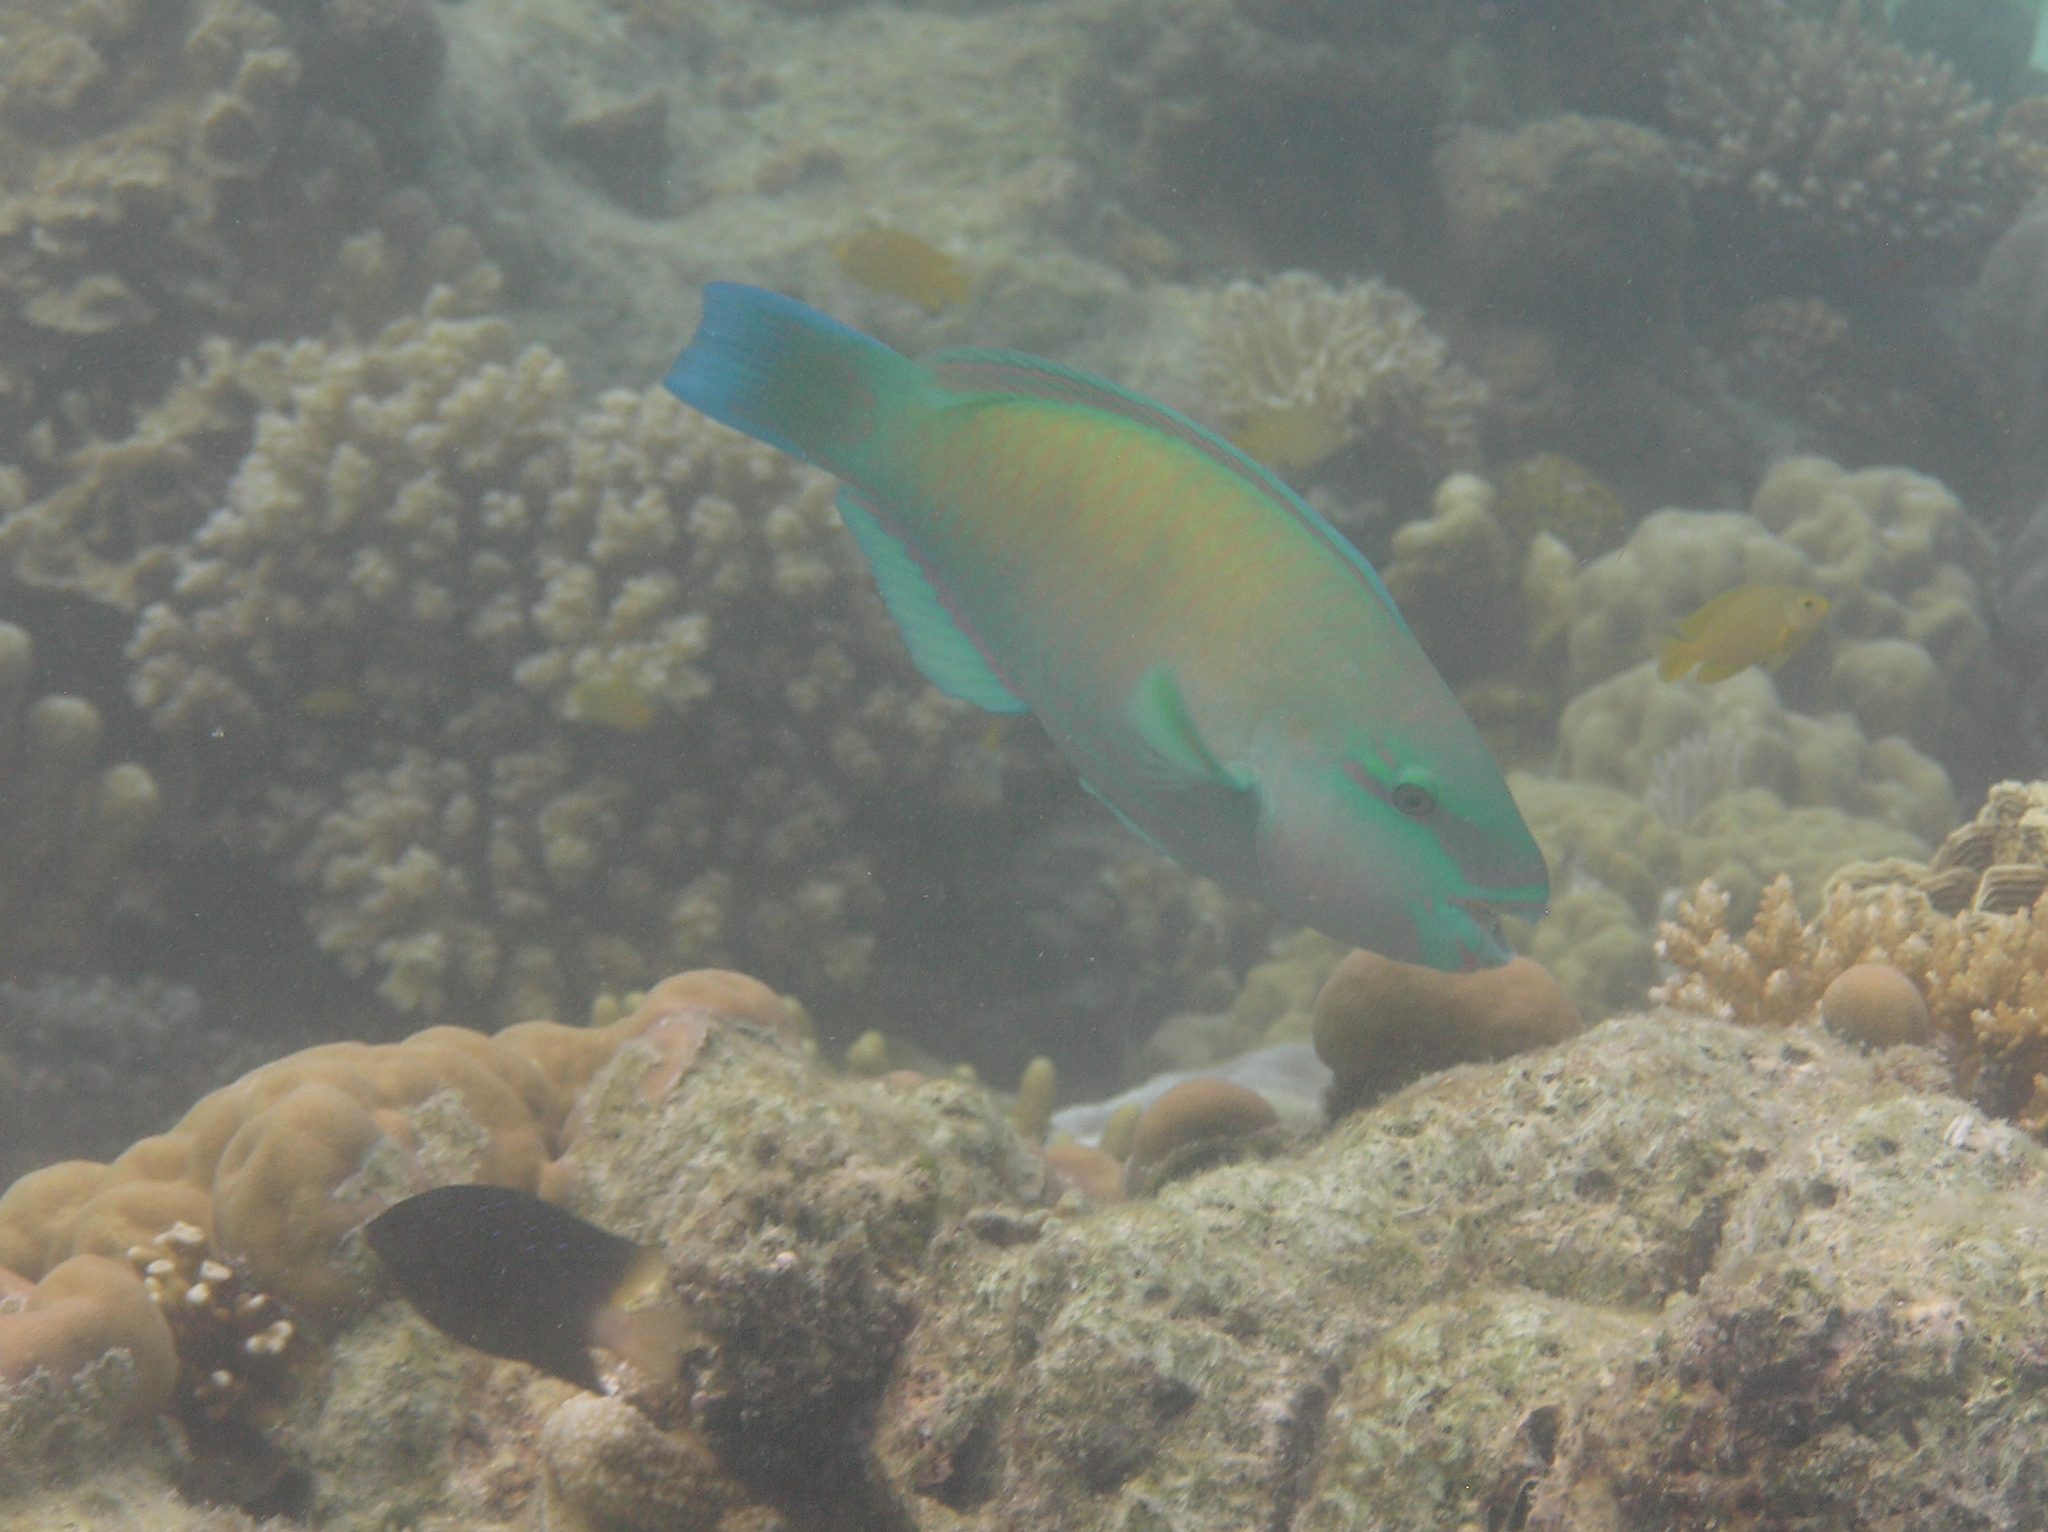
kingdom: Animalia
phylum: Chordata
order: Perciformes
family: Scaridae
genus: Chlorurus
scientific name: Chlorurus spilurus
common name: Bullethead parrotfish
